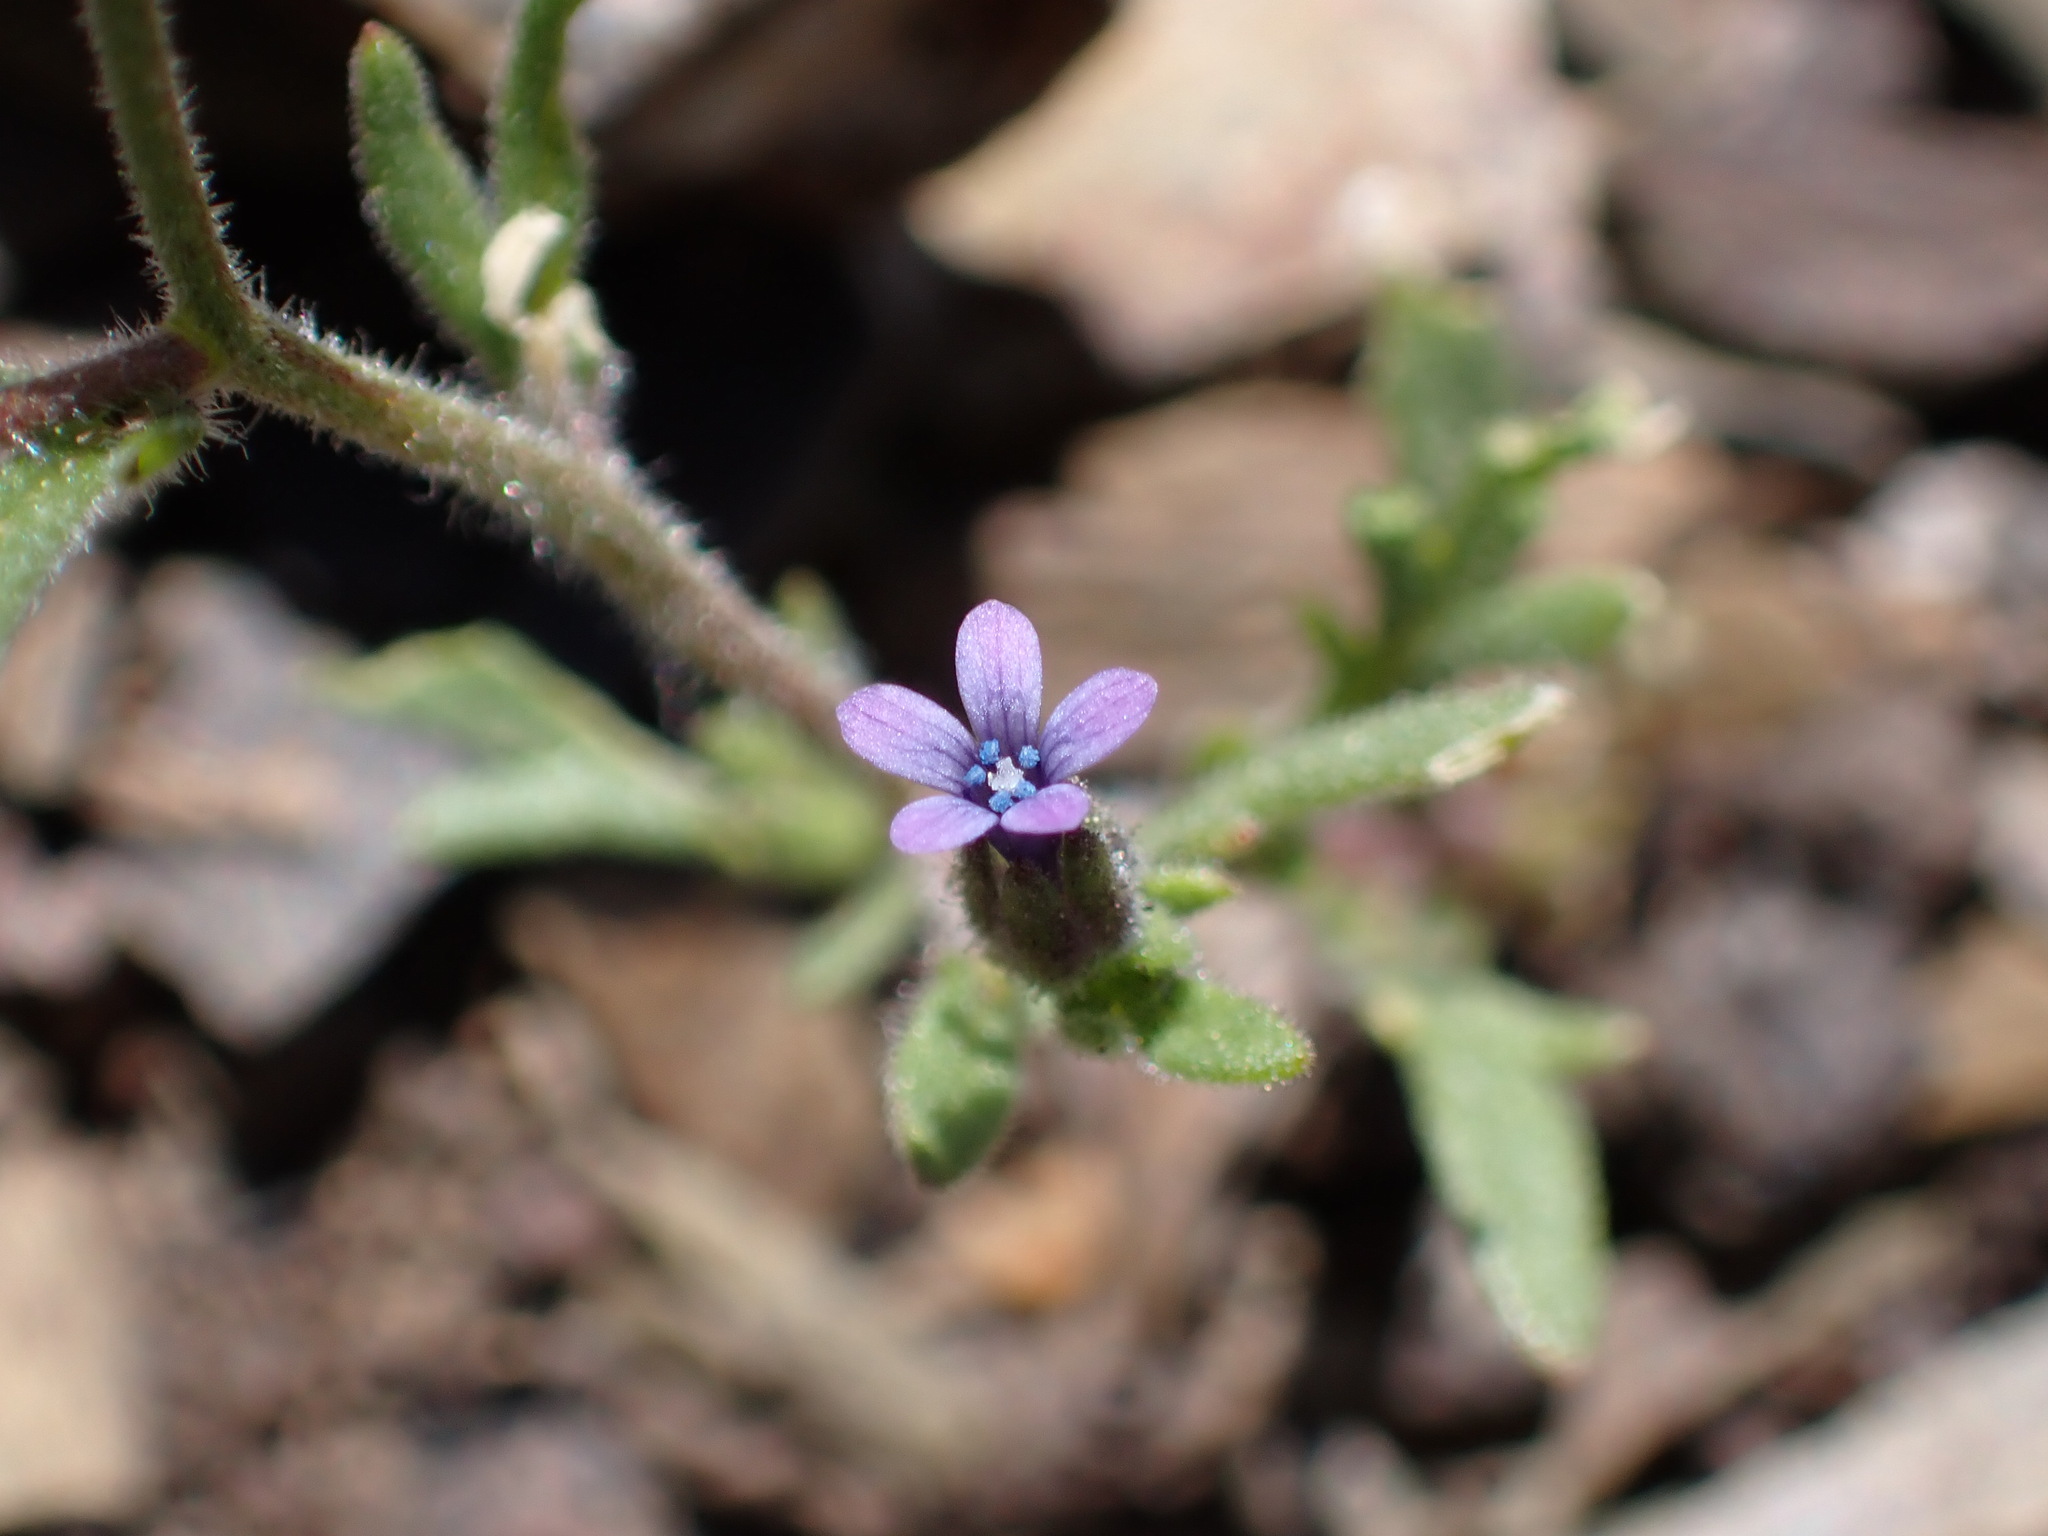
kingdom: Plantae
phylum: Tracheophyta
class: Magnoliopsida
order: Ericales
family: Polemoniaceae
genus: Allophyllum
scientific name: Allophyllum gilioides
